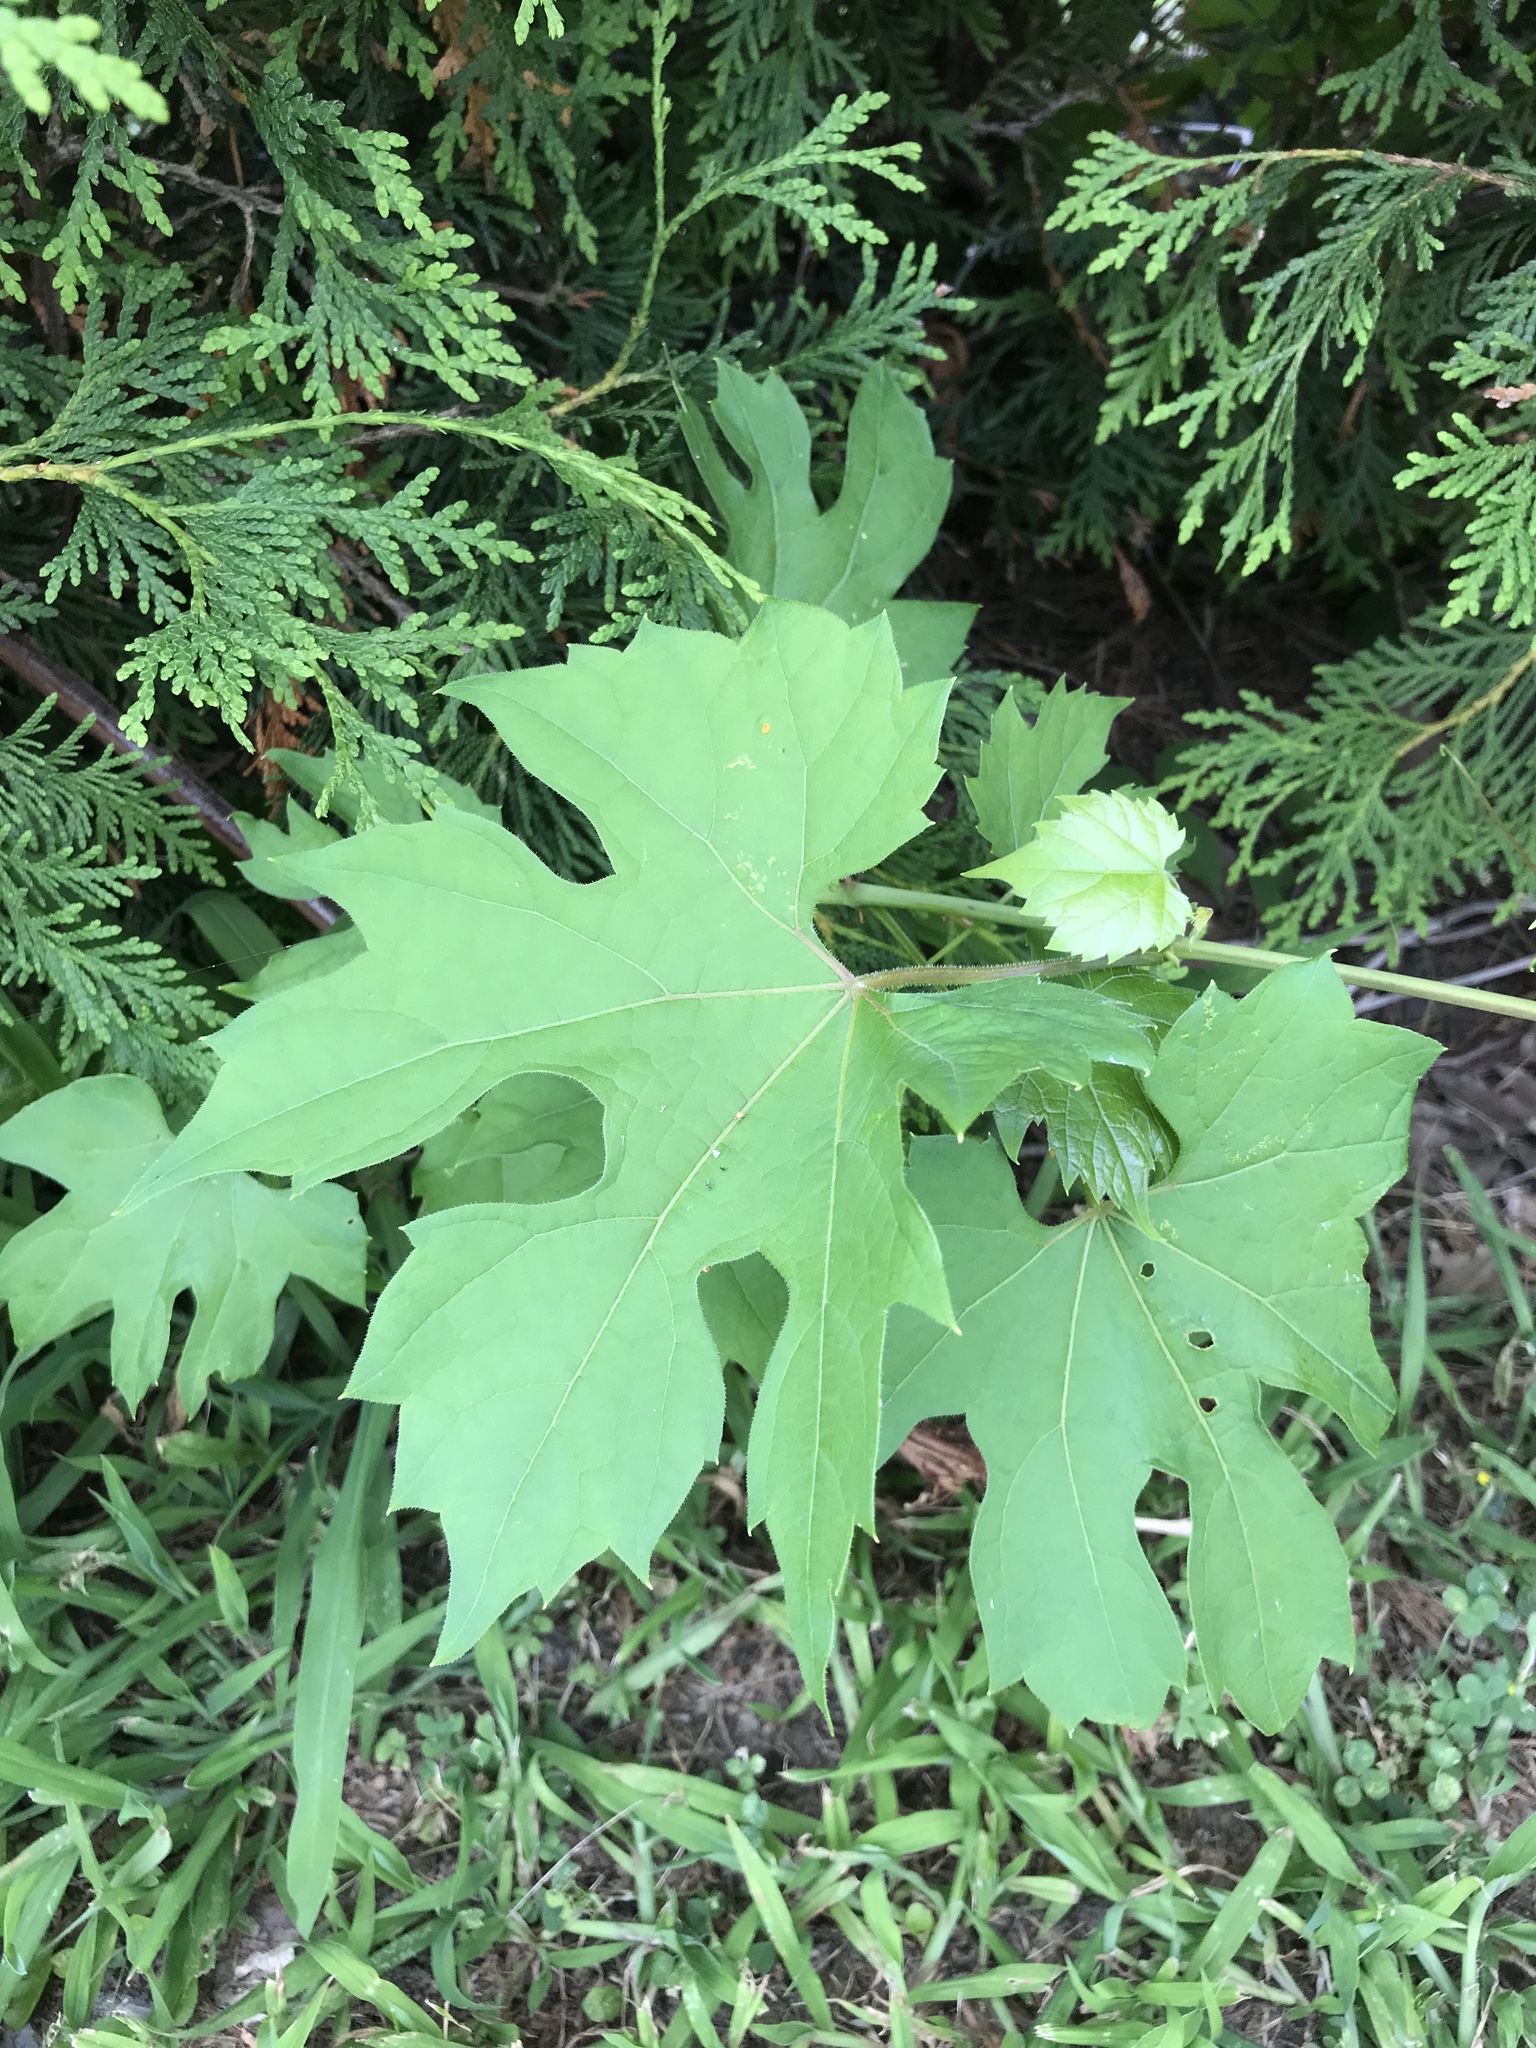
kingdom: Plantae
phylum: Tracheophyta
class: Magnoliopsida
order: Vitales
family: Vitaceae
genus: Vitis
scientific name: Vitis riparia
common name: Frost grape
